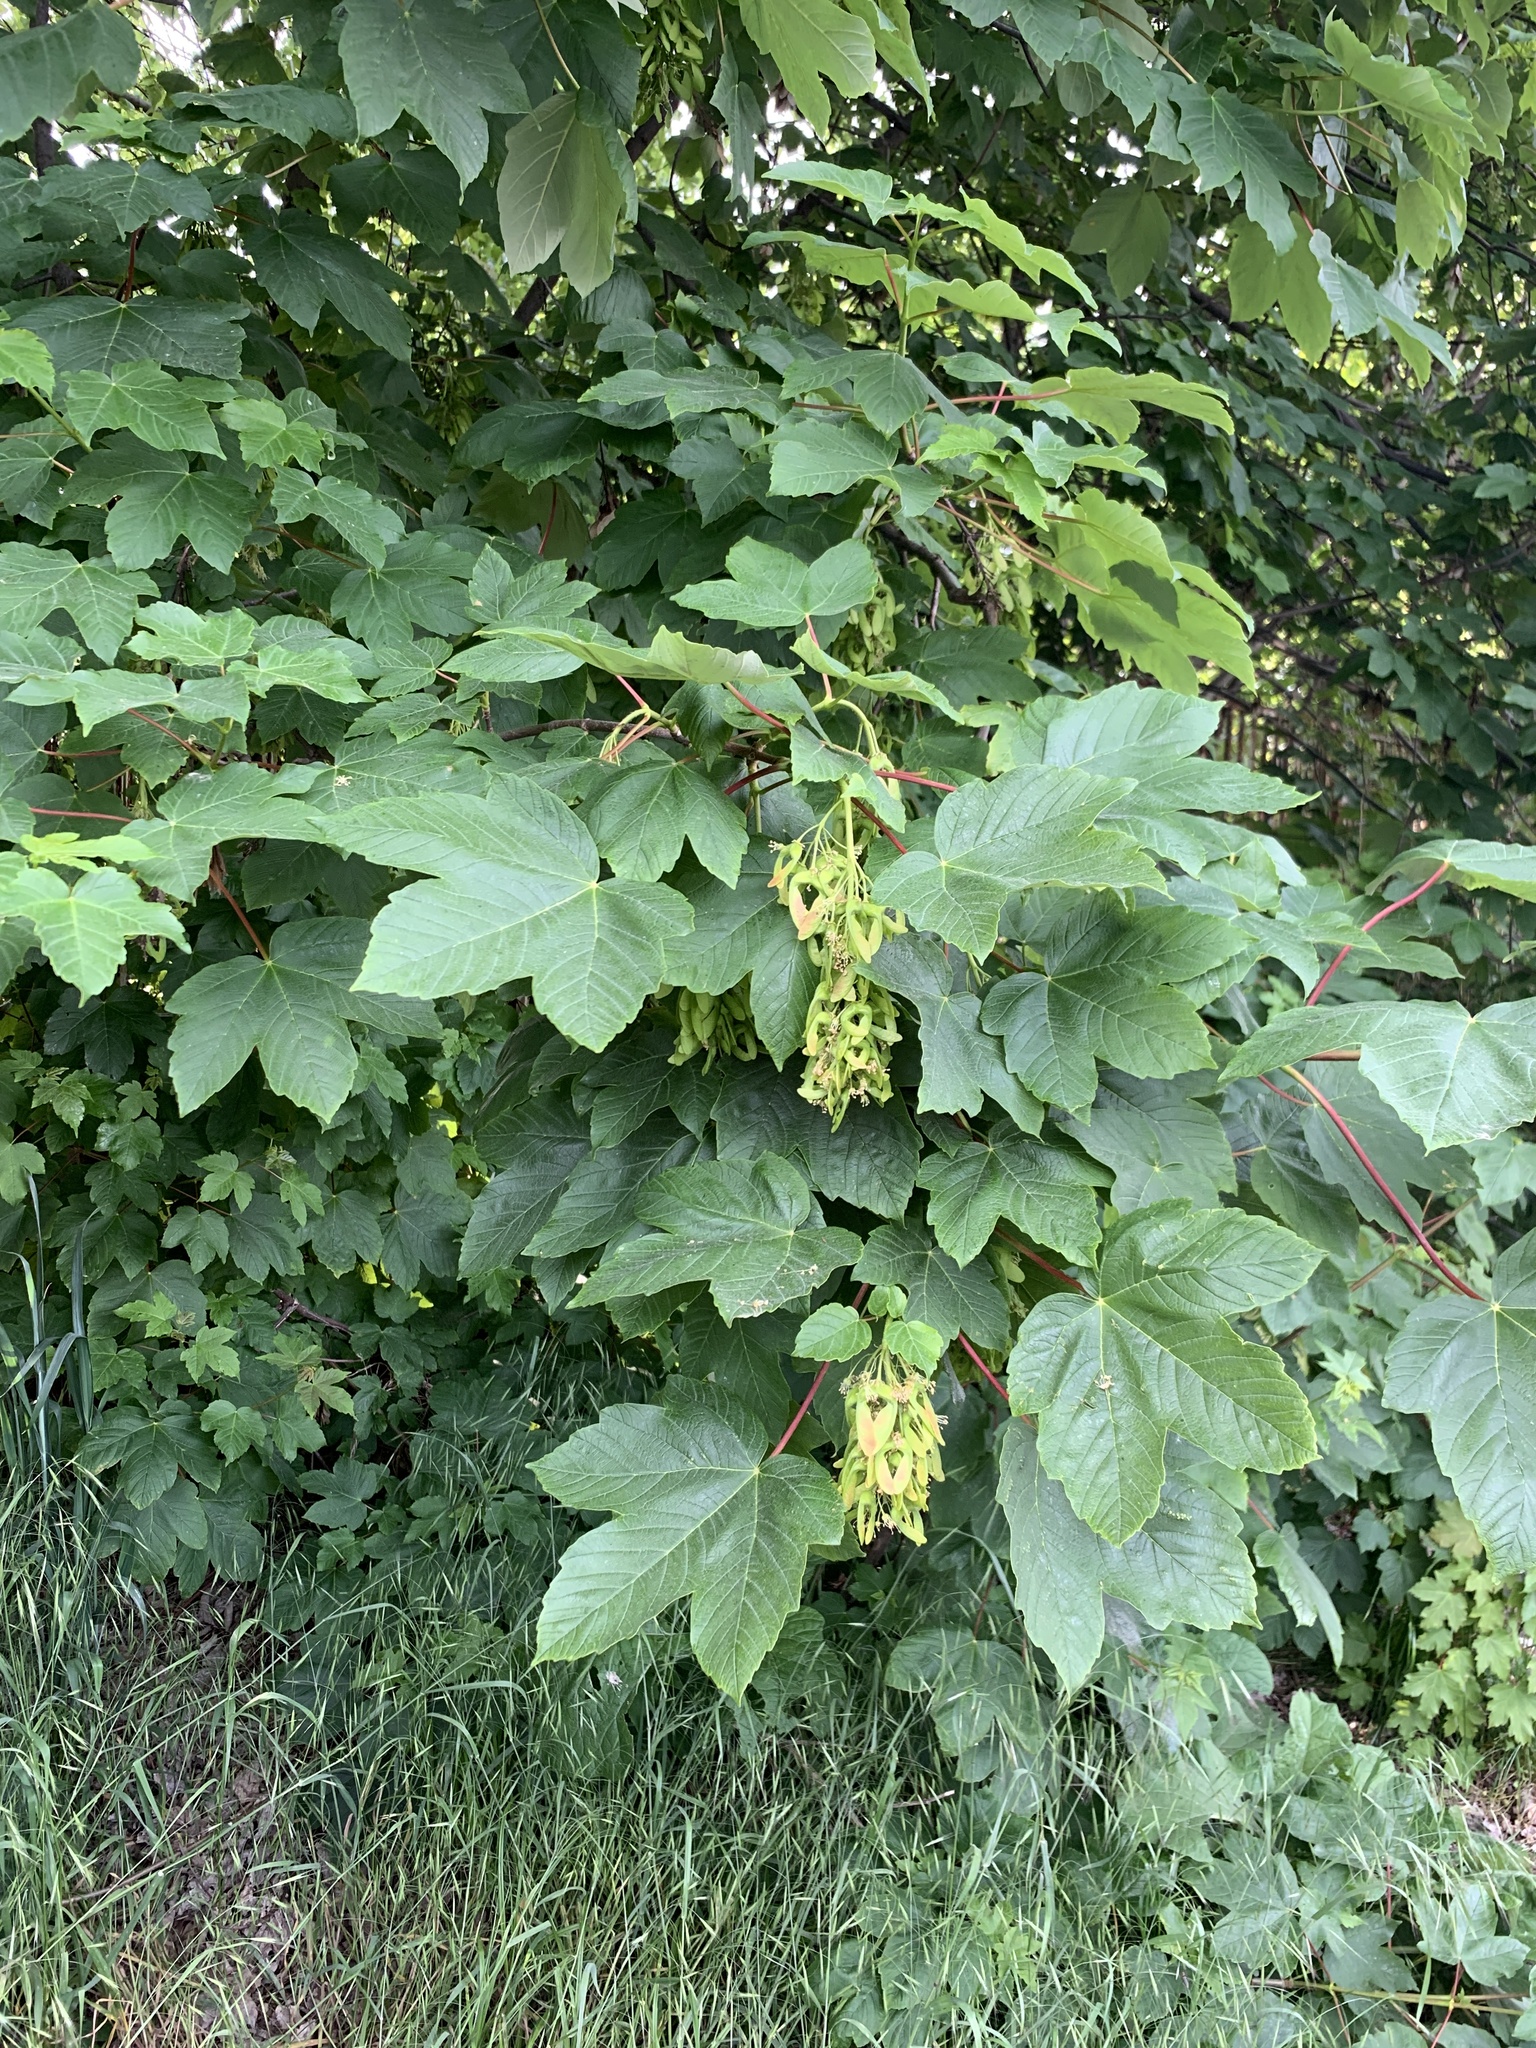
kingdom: Plantae
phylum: Tracheophyta
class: Magnoliopsida
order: Sapindales
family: Sapindaceae
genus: Acer
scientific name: Acer pseudoplatanus
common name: Sycamore
